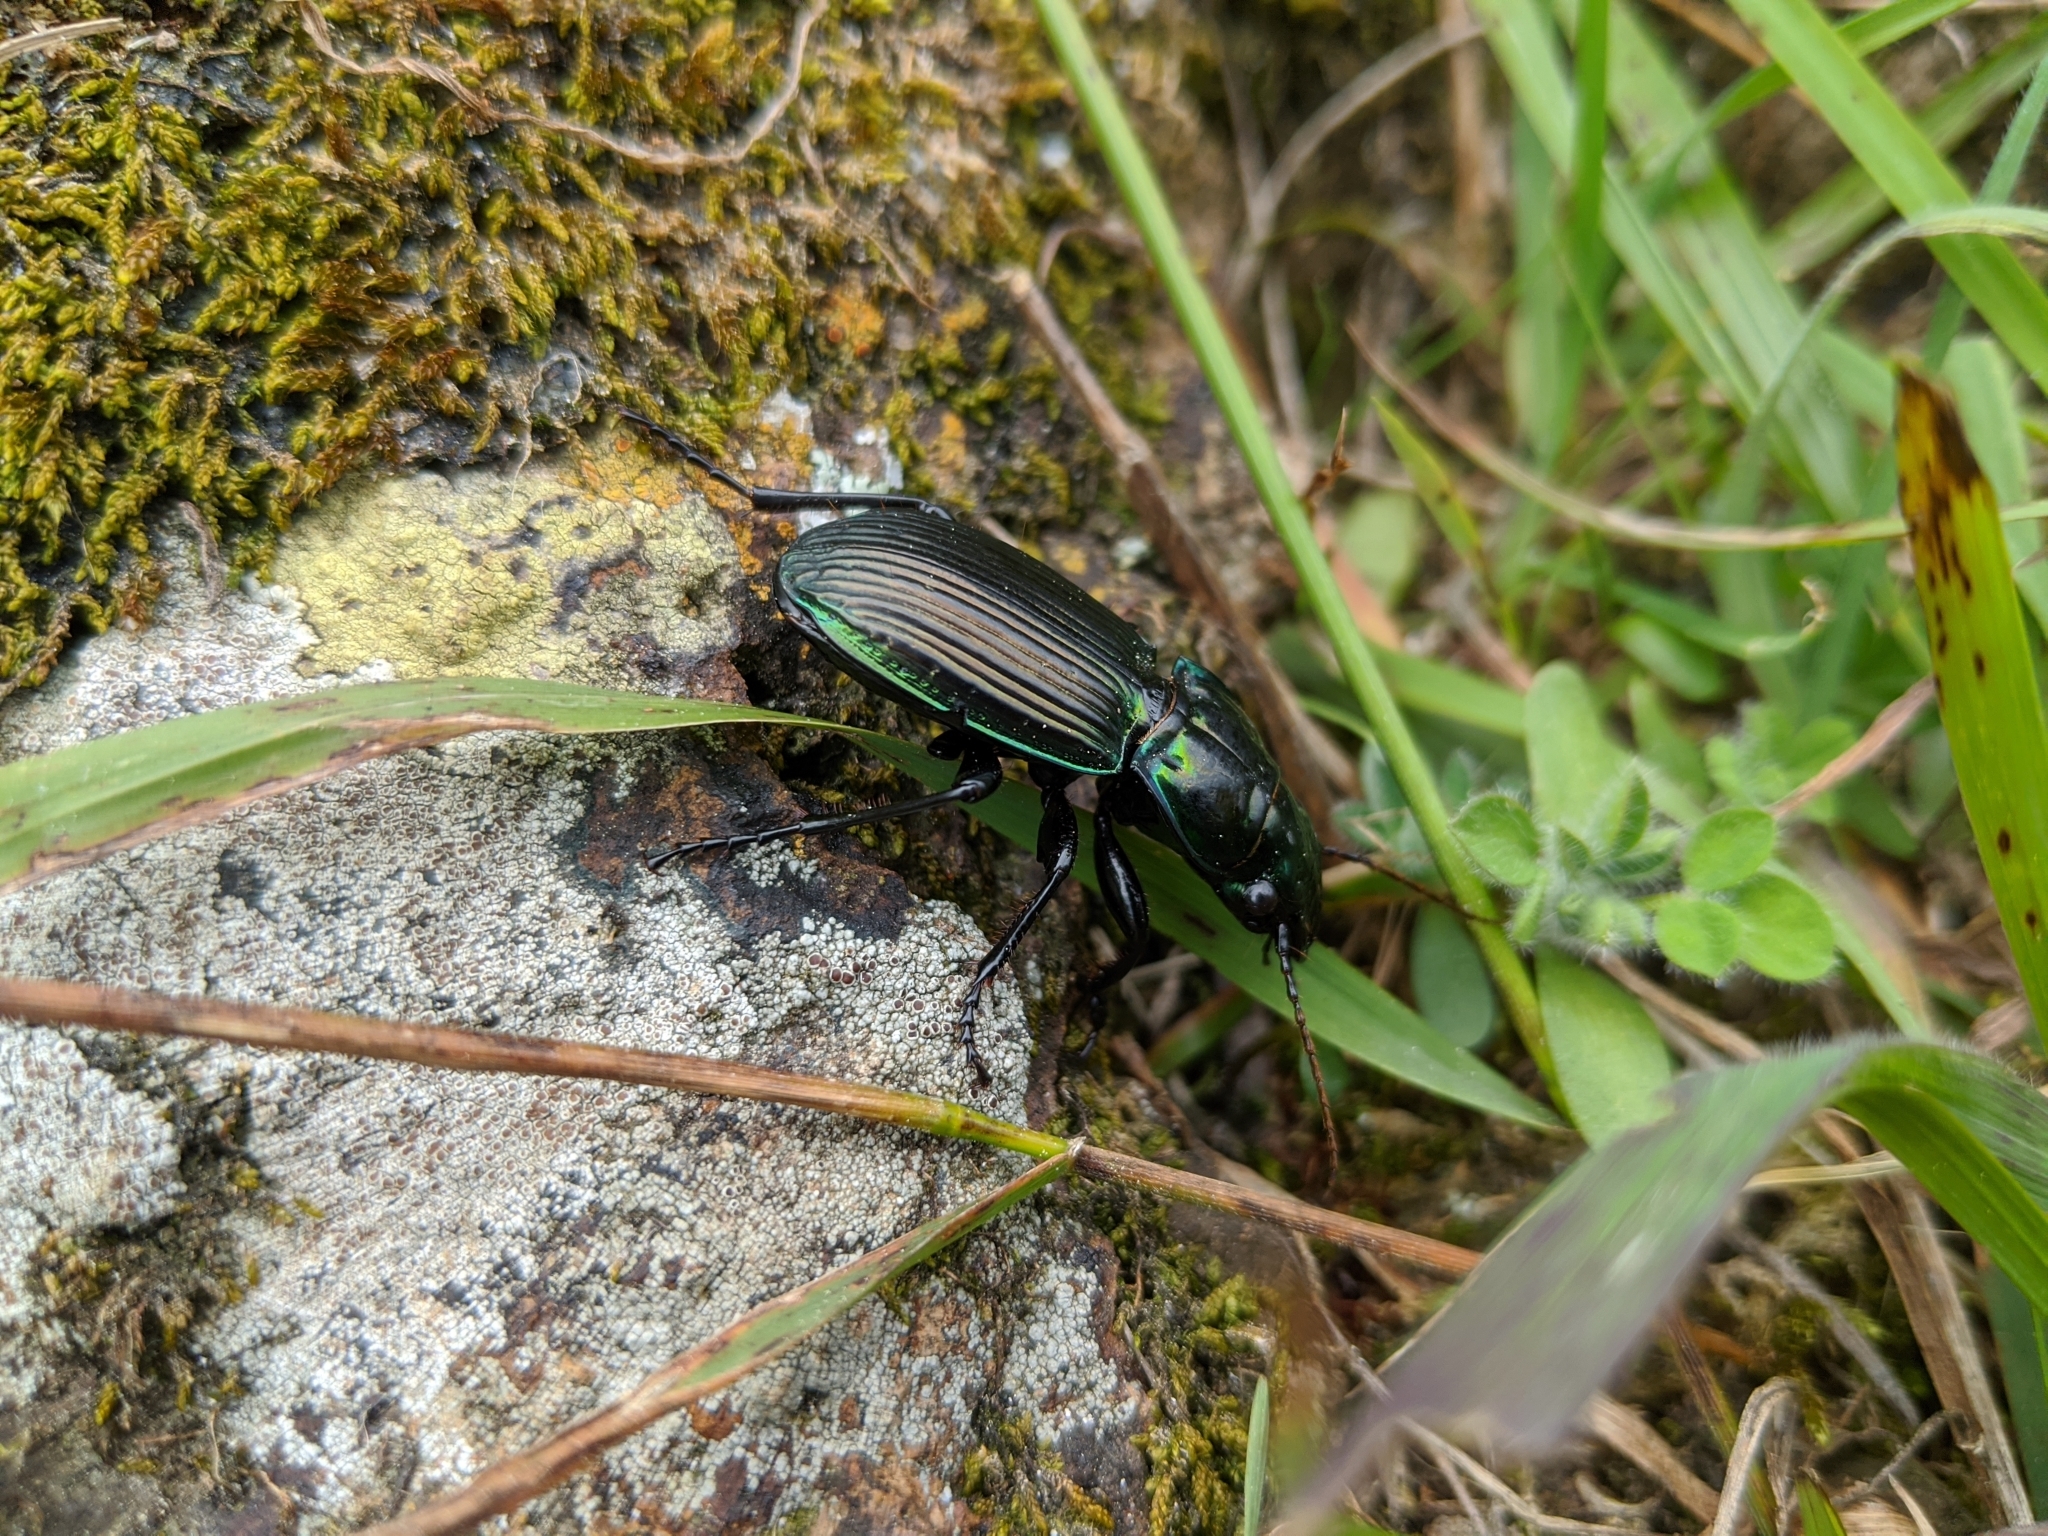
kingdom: Animalia
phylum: Arthropoda
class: Insecta
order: Coleoptera
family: Carabidae
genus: Megadromus
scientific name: Megadromus antarcticus
